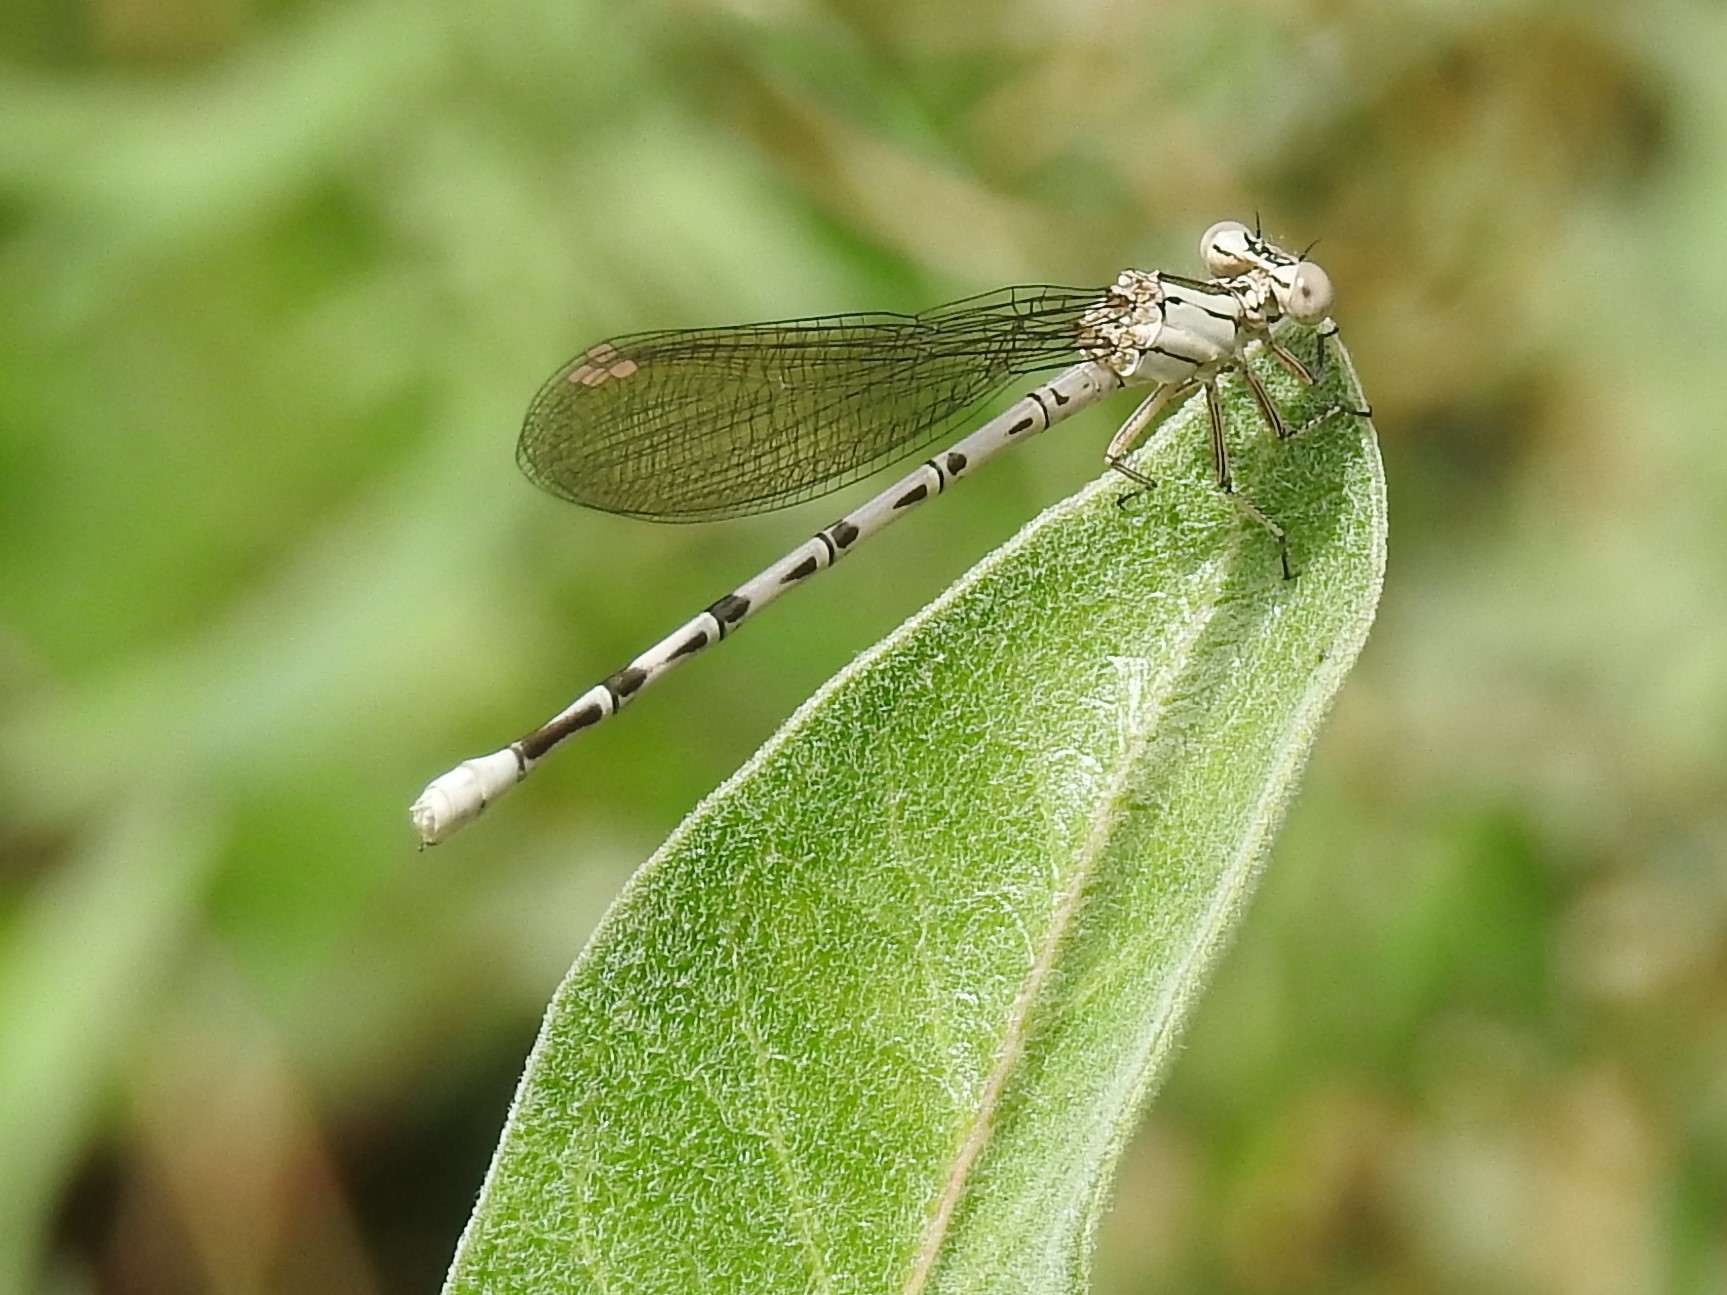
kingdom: Animalia
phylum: Arthropoda
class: Insecta
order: Odonata
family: Coenagrionidae
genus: Argia
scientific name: Argia vivida
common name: Vivid dancer
